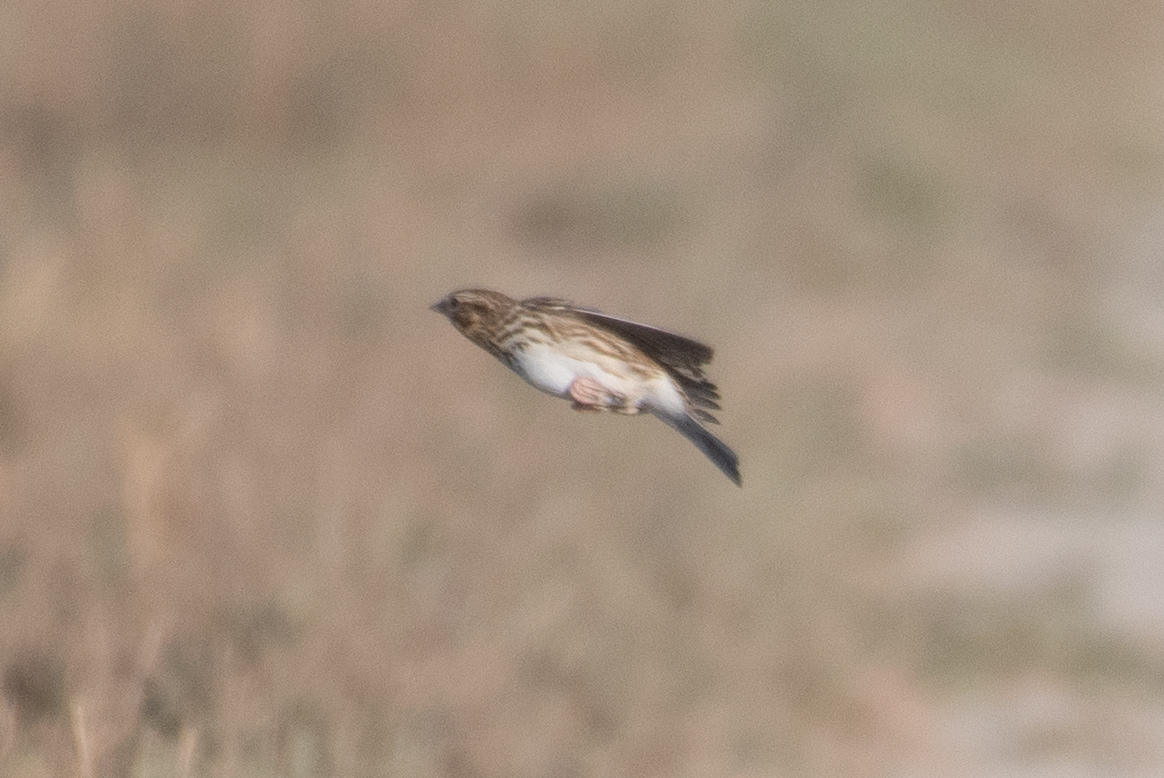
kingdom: Animalia
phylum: Chordata
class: Aves
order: Passeriformes
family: Passerellidae
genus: Passerculus
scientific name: Passerculus sandwichensis
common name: Savannah sparrow
